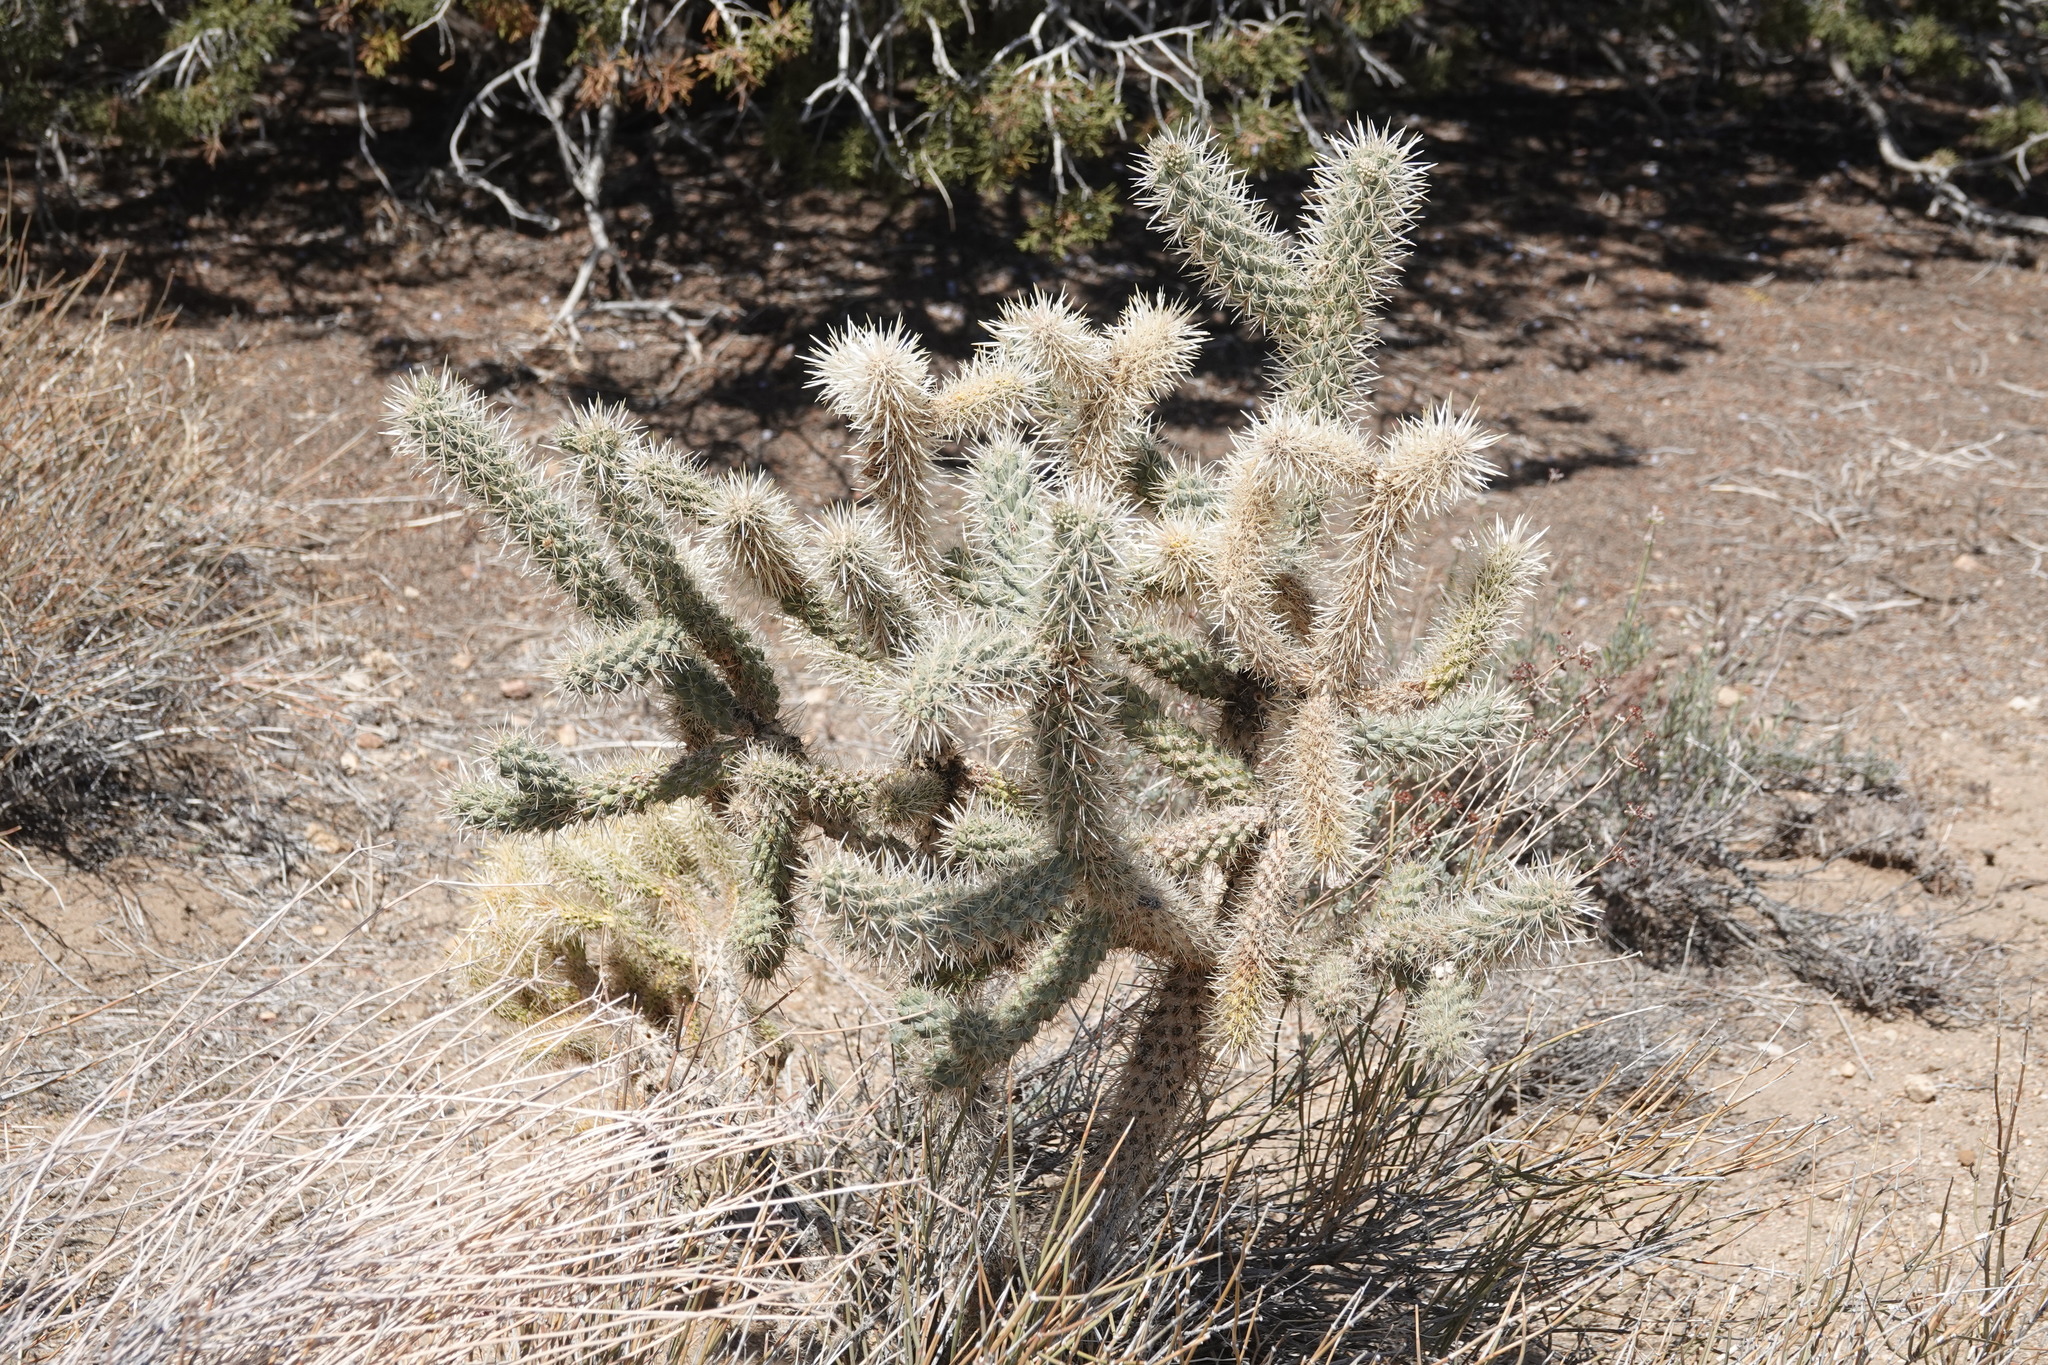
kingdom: Plantae
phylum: Tracheophyta
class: Magnoliopsida
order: Caryophyllales
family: Cactaceae
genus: Cylindropuntia
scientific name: Cylindropuntia echinocarpa
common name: Ground cholla
